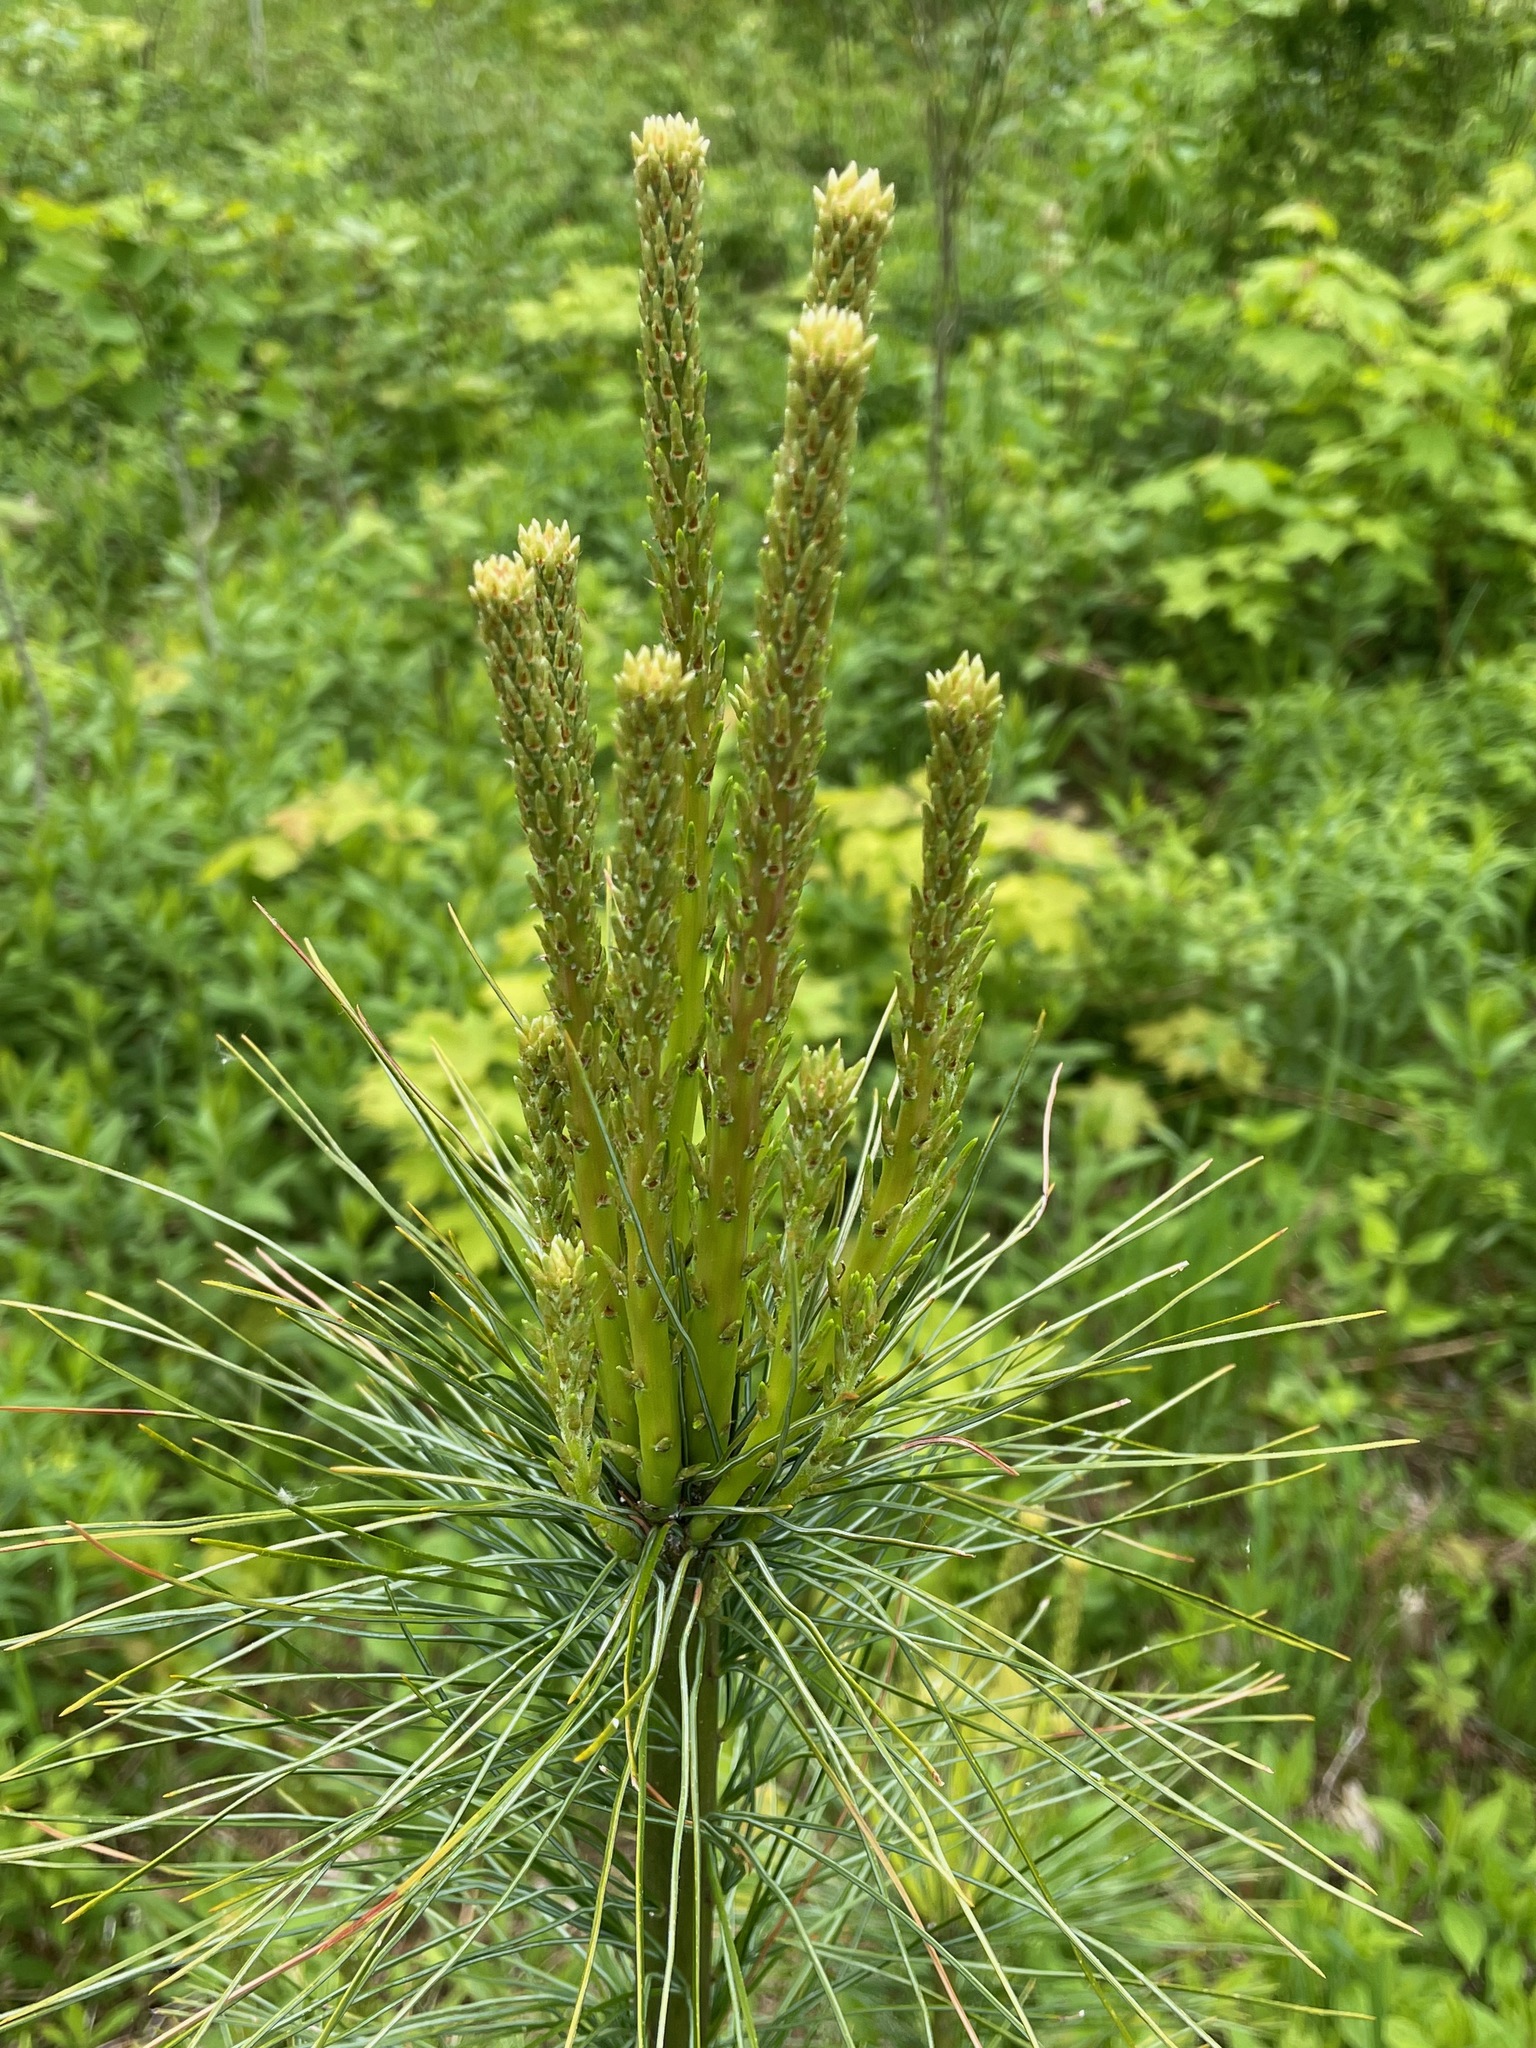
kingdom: Plantae
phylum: Tracheophyta
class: Pinopsida
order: Pinales
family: Pinaceae
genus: Pinus
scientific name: Pinus strobus
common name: Weymouth pine
